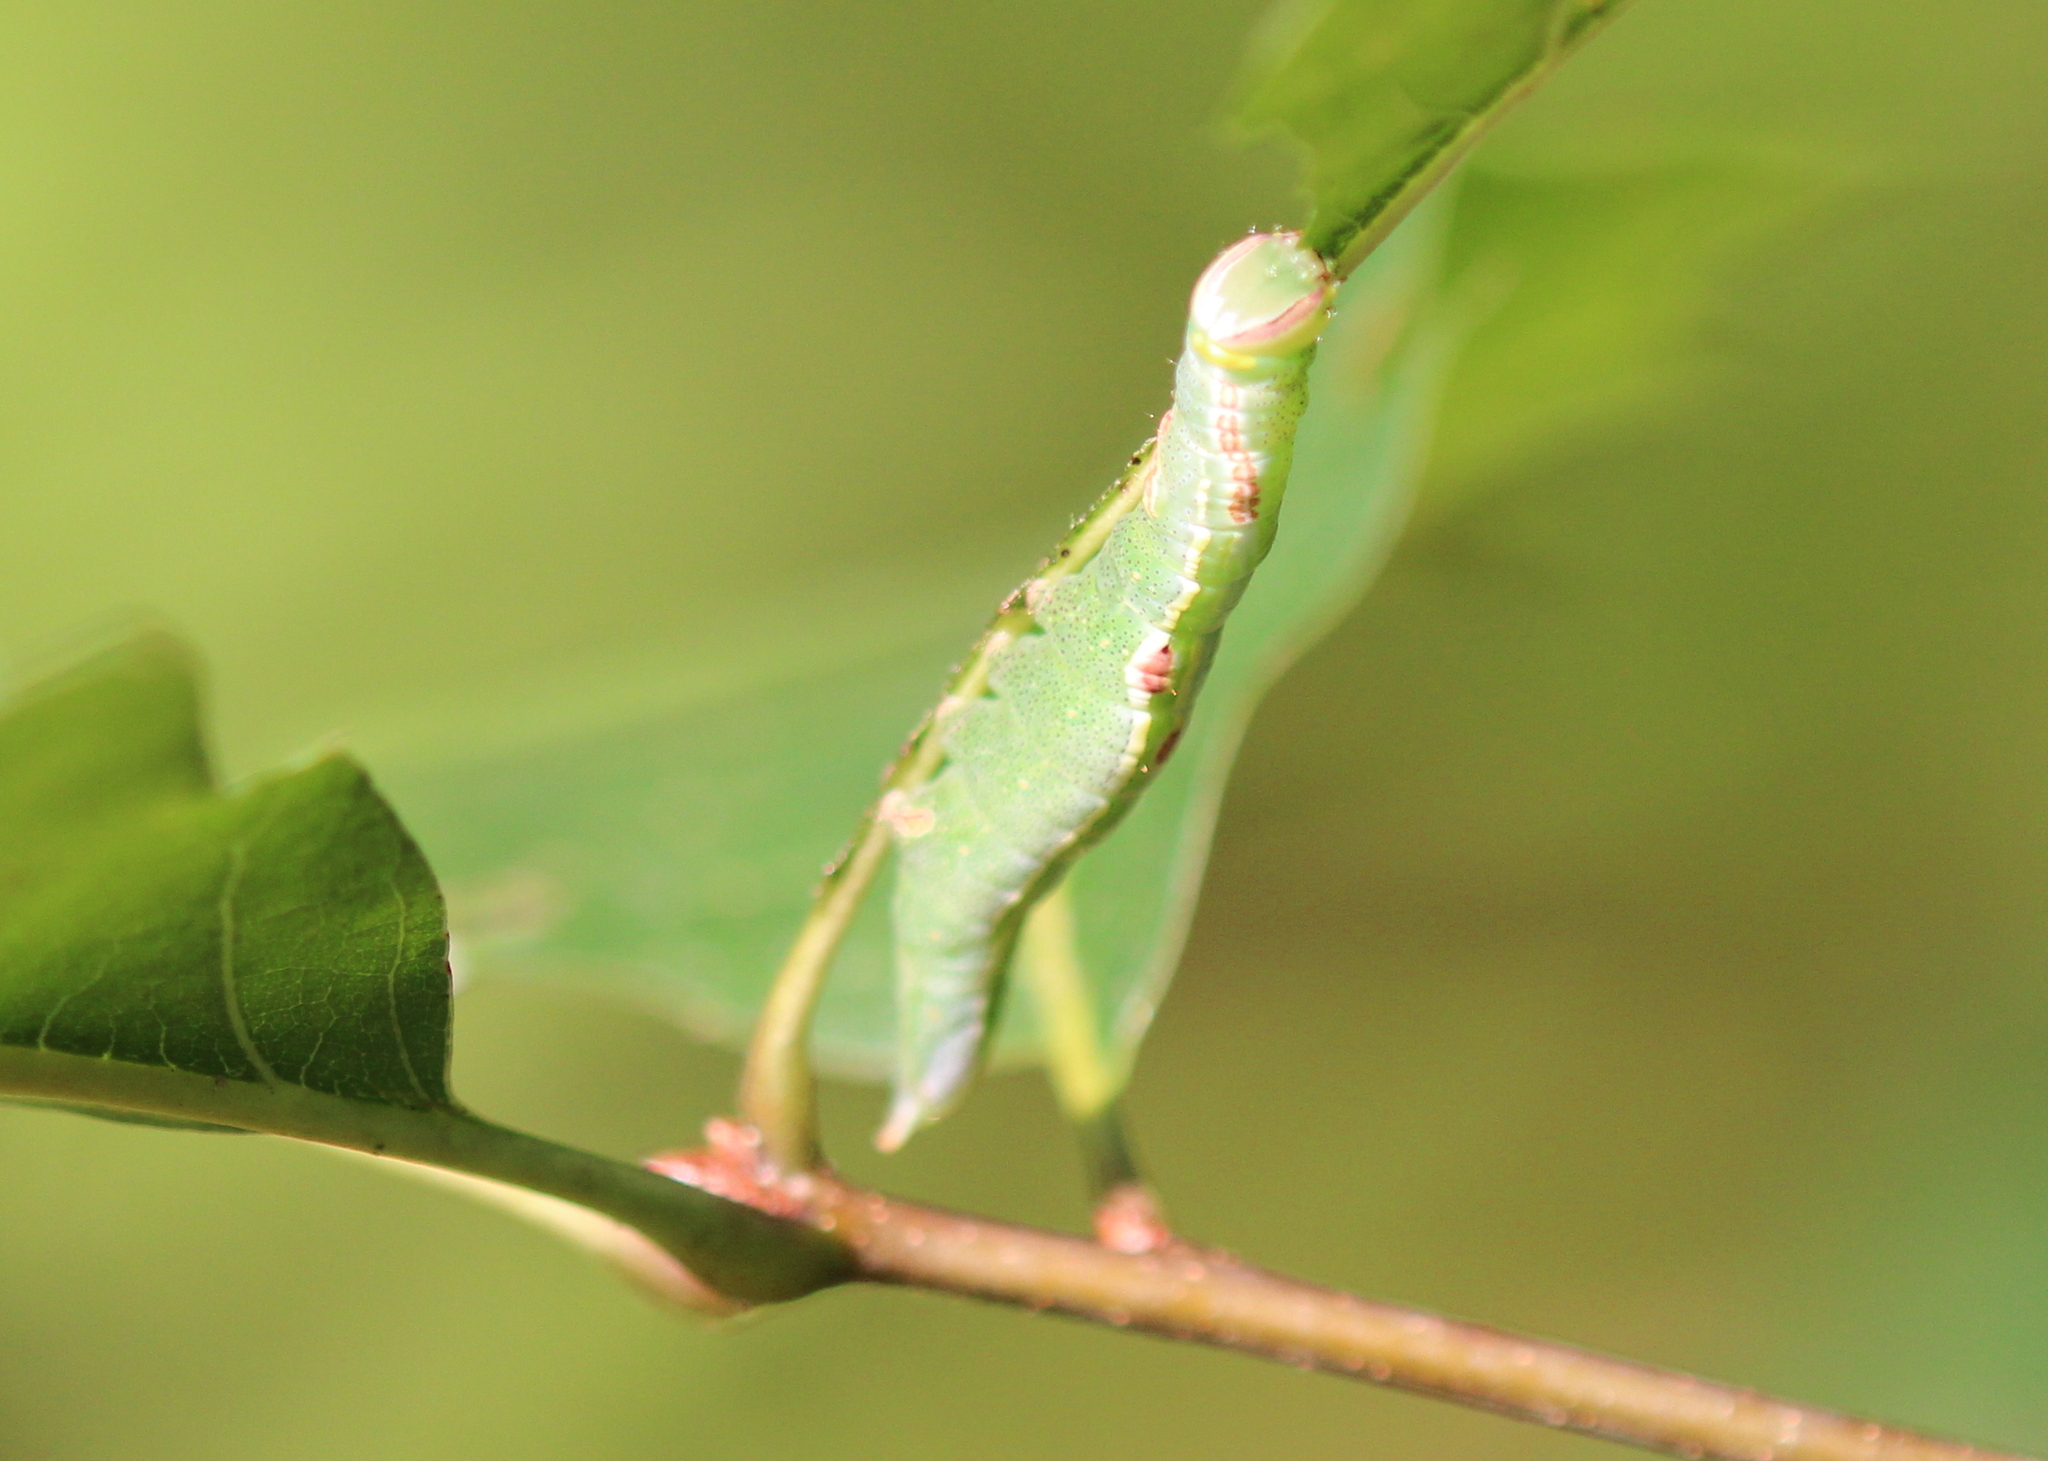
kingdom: Animalia
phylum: Arthropoda
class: Insecta
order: Lepidoptera
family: Notodontidae
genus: Disphragis
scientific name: Disphragis Cecrita guttivitta
